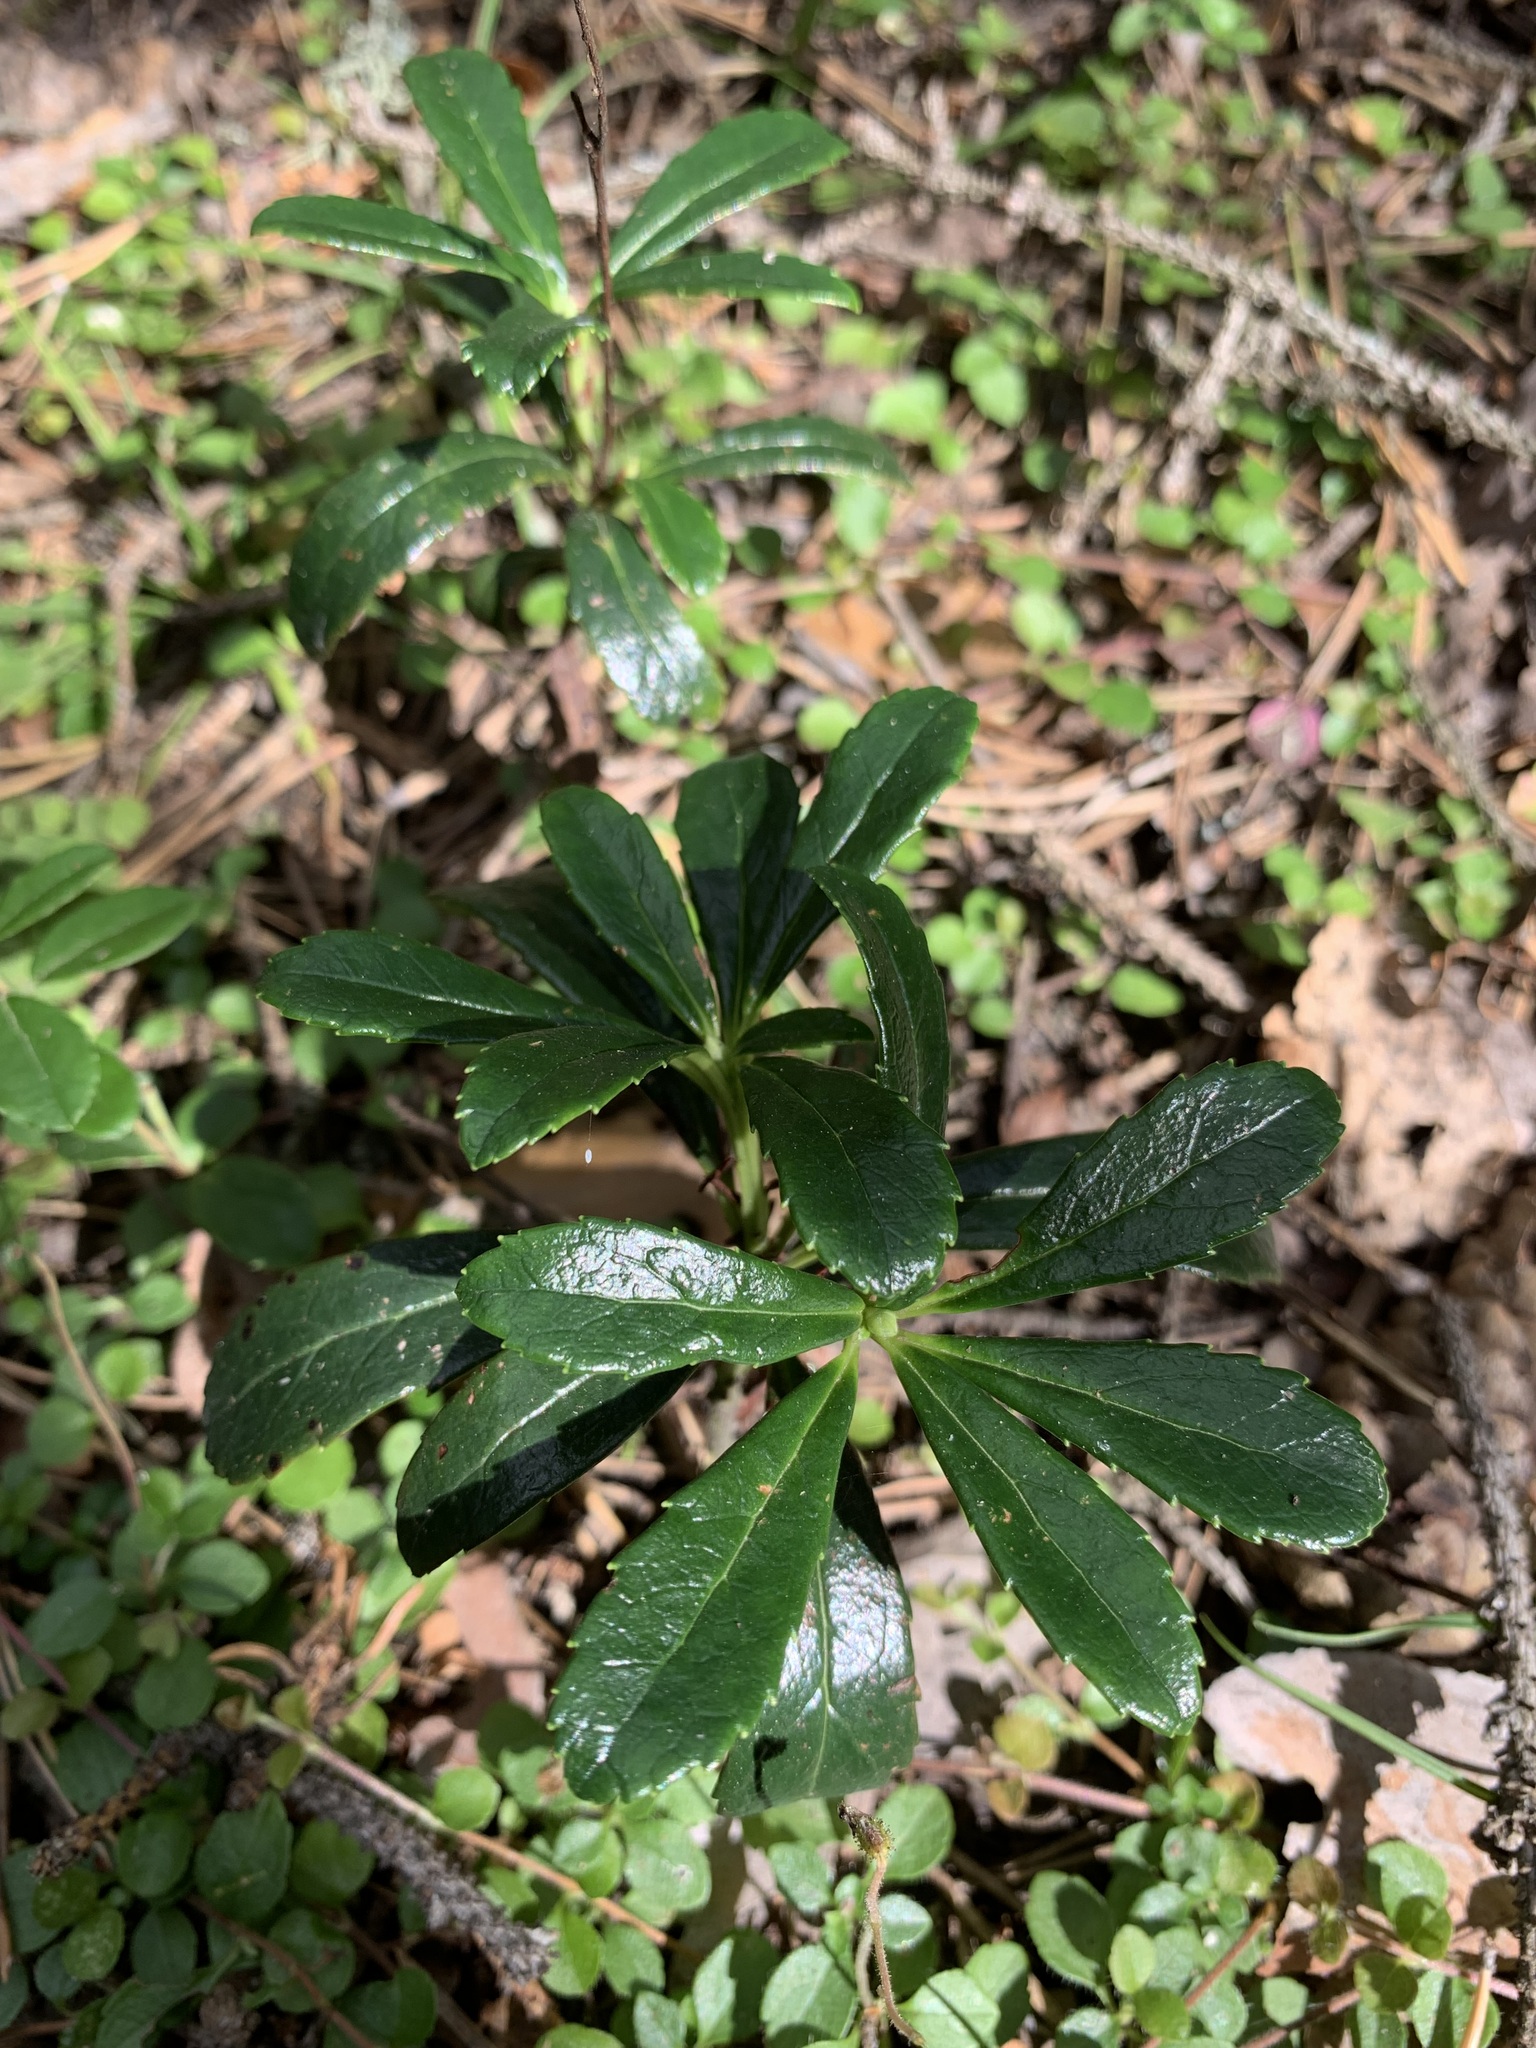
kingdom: Plantae
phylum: Tracheophyta
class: Magnoliopsida
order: Ericales
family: Ericaceae
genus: Chimaphila
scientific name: Chimaphila umbellata
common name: Pipsissewa
